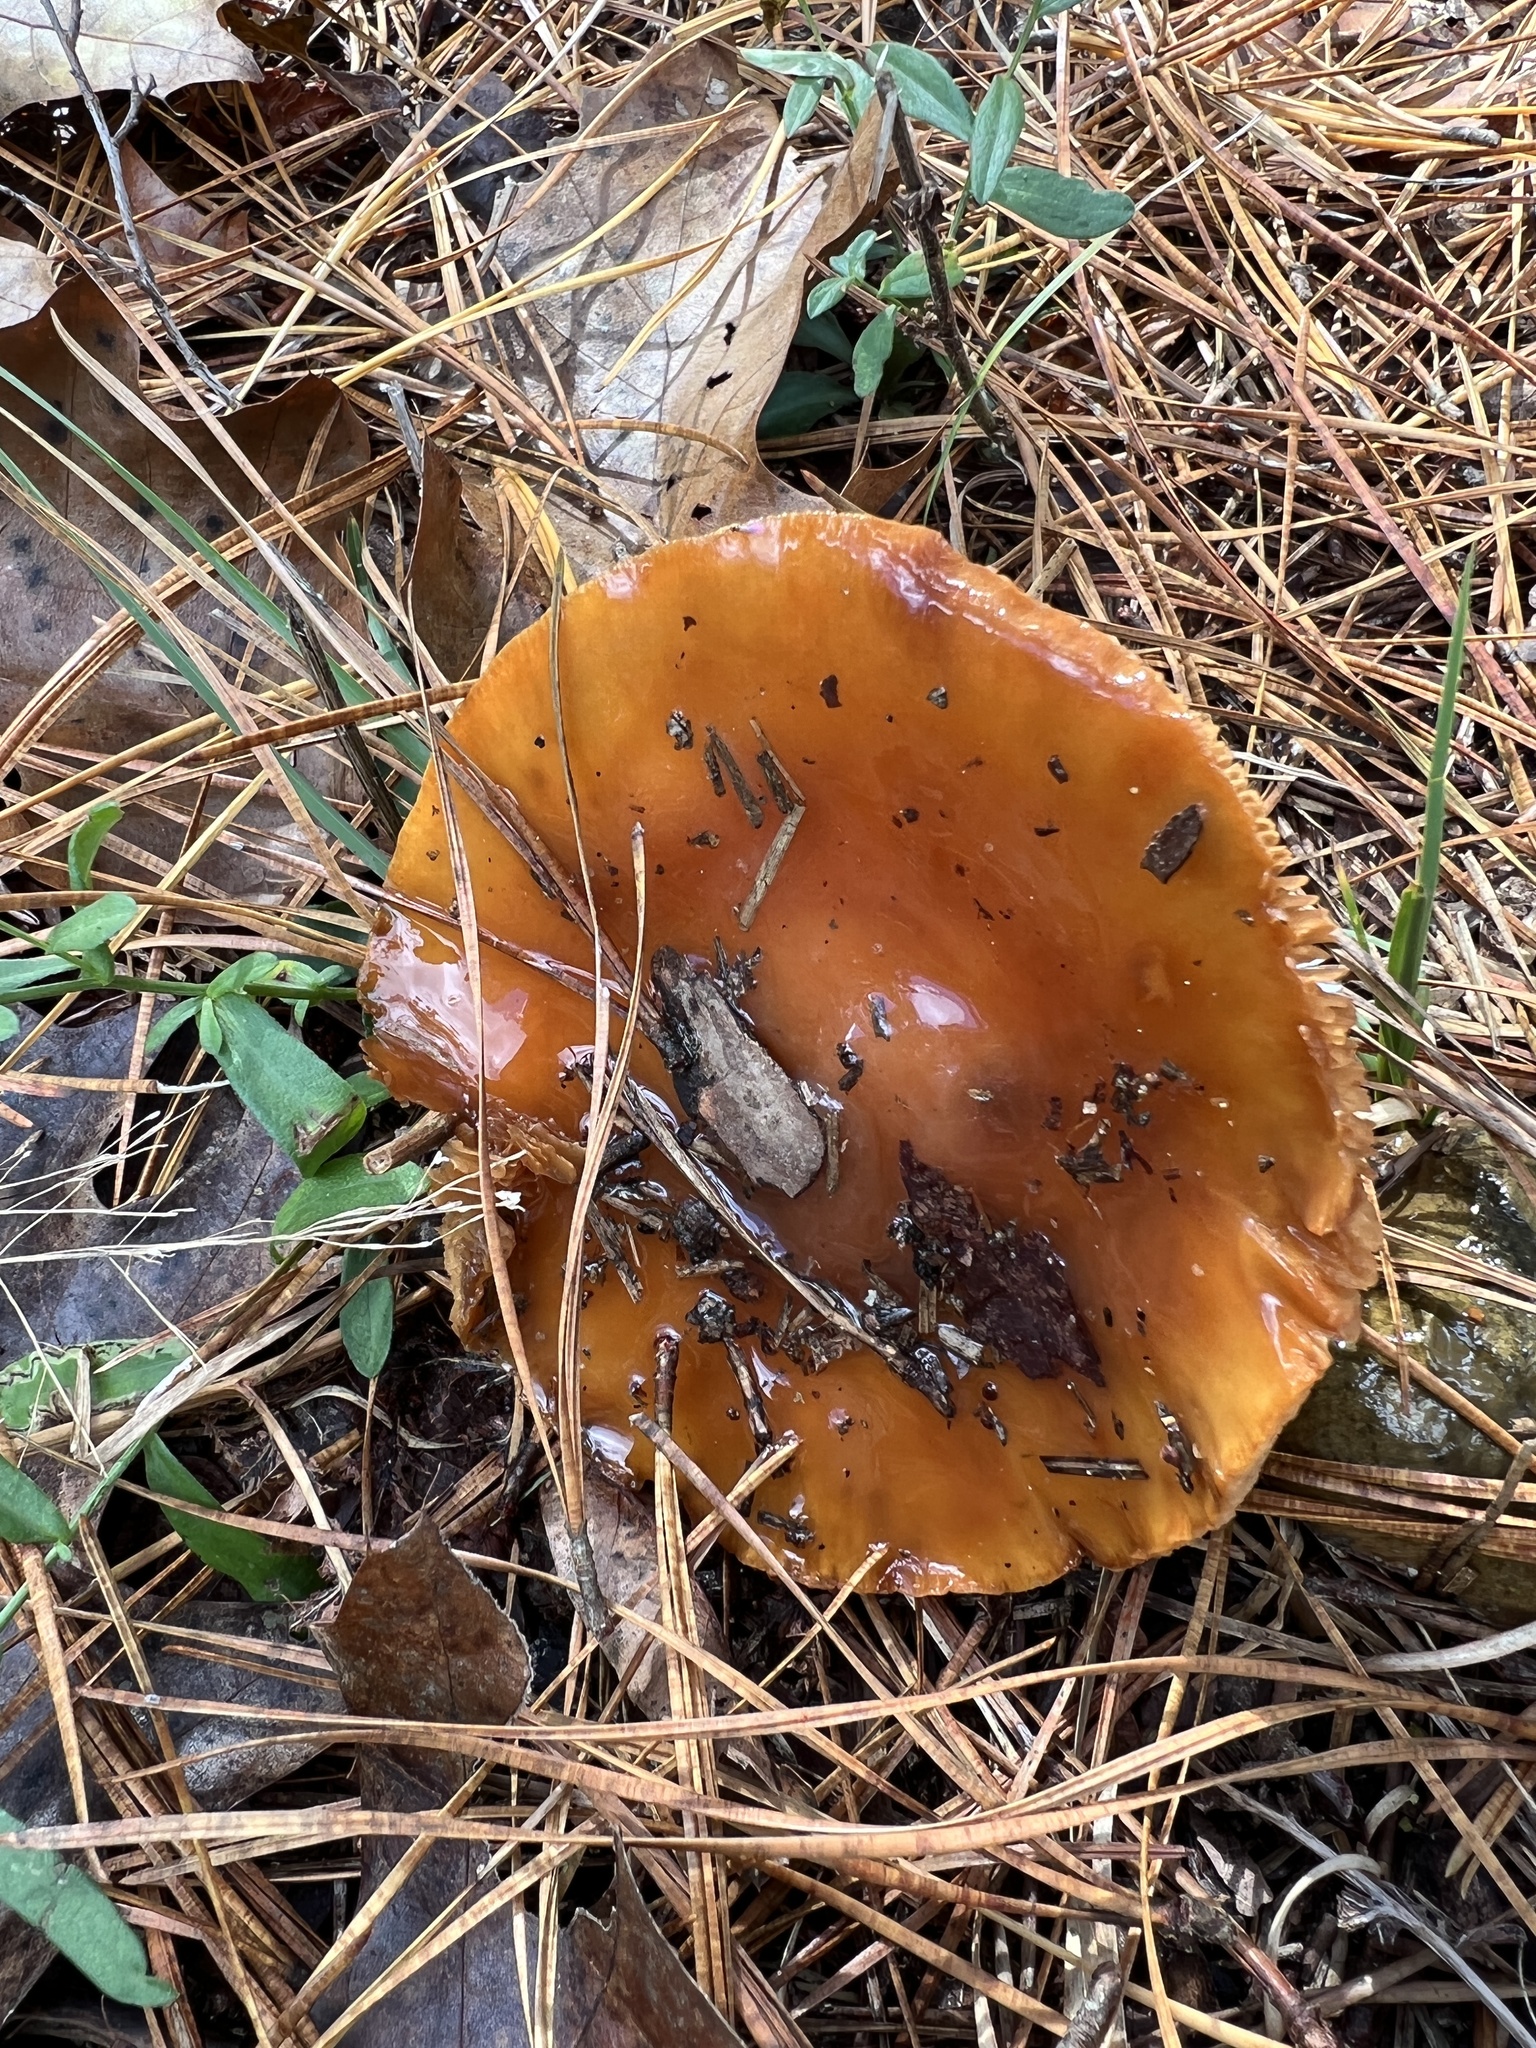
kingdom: Fungi
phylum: Basidiomycota
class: Agaricomycetes
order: Agaricales
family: Cortinariaceae
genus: Cortinarius
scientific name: Cortinarius mucosus
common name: Orange webcap
